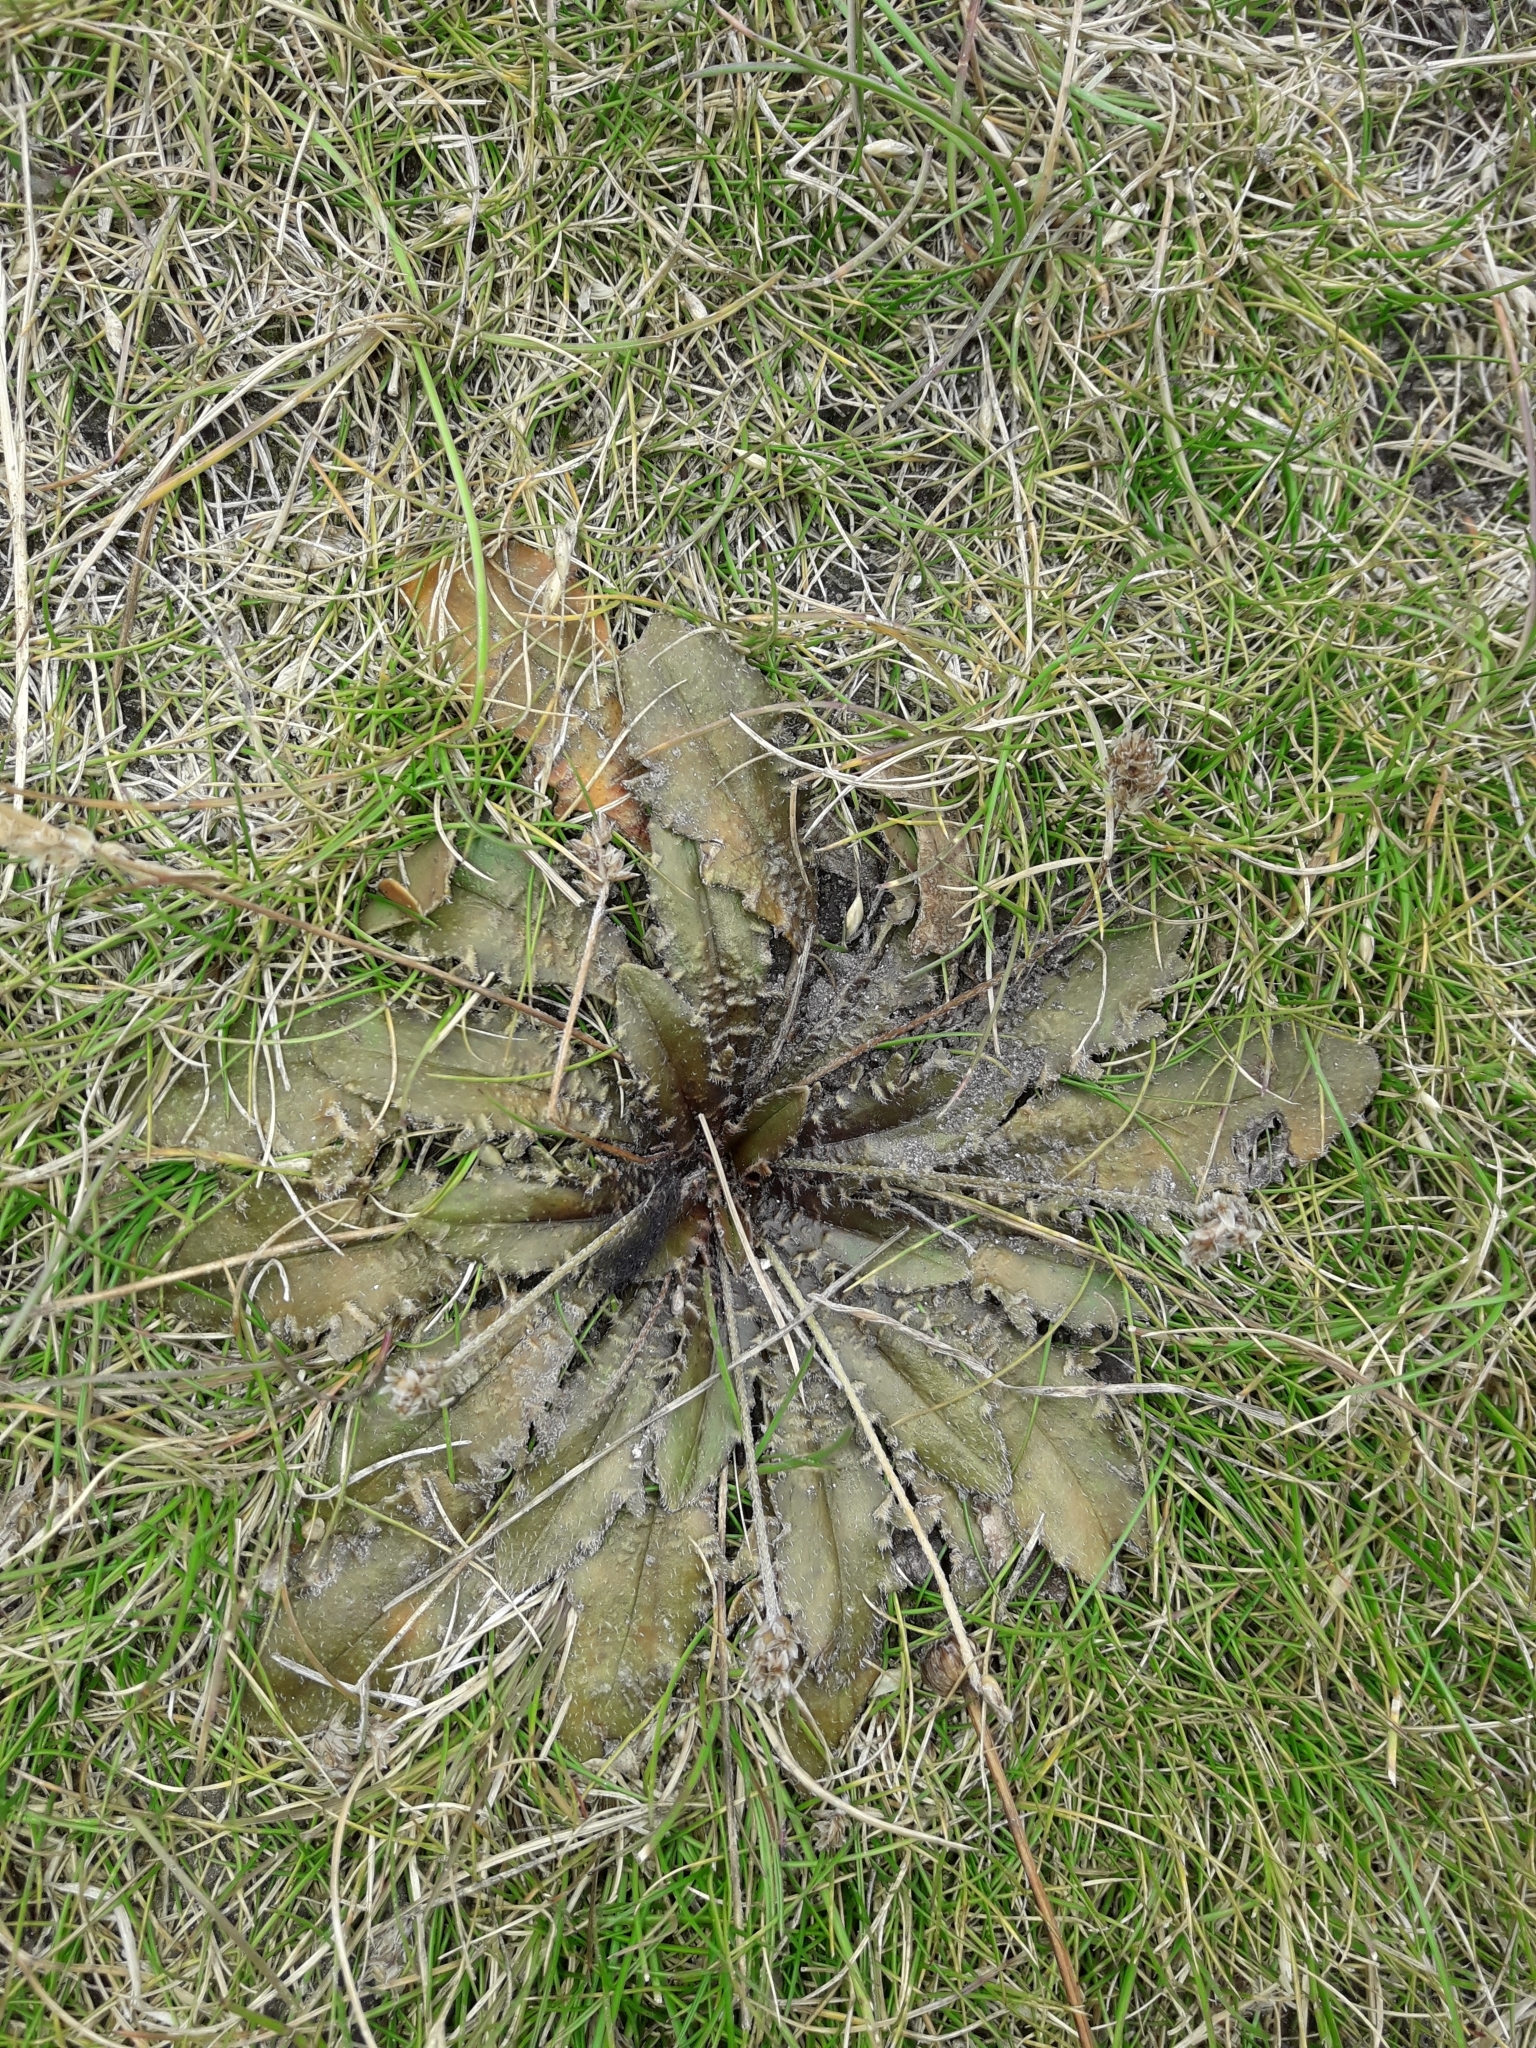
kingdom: Plantae
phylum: Tracheophyta
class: Magnoliopsida
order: Lamiales
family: Plantaginaceae
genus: Plantago
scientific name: Plantago spathulata
